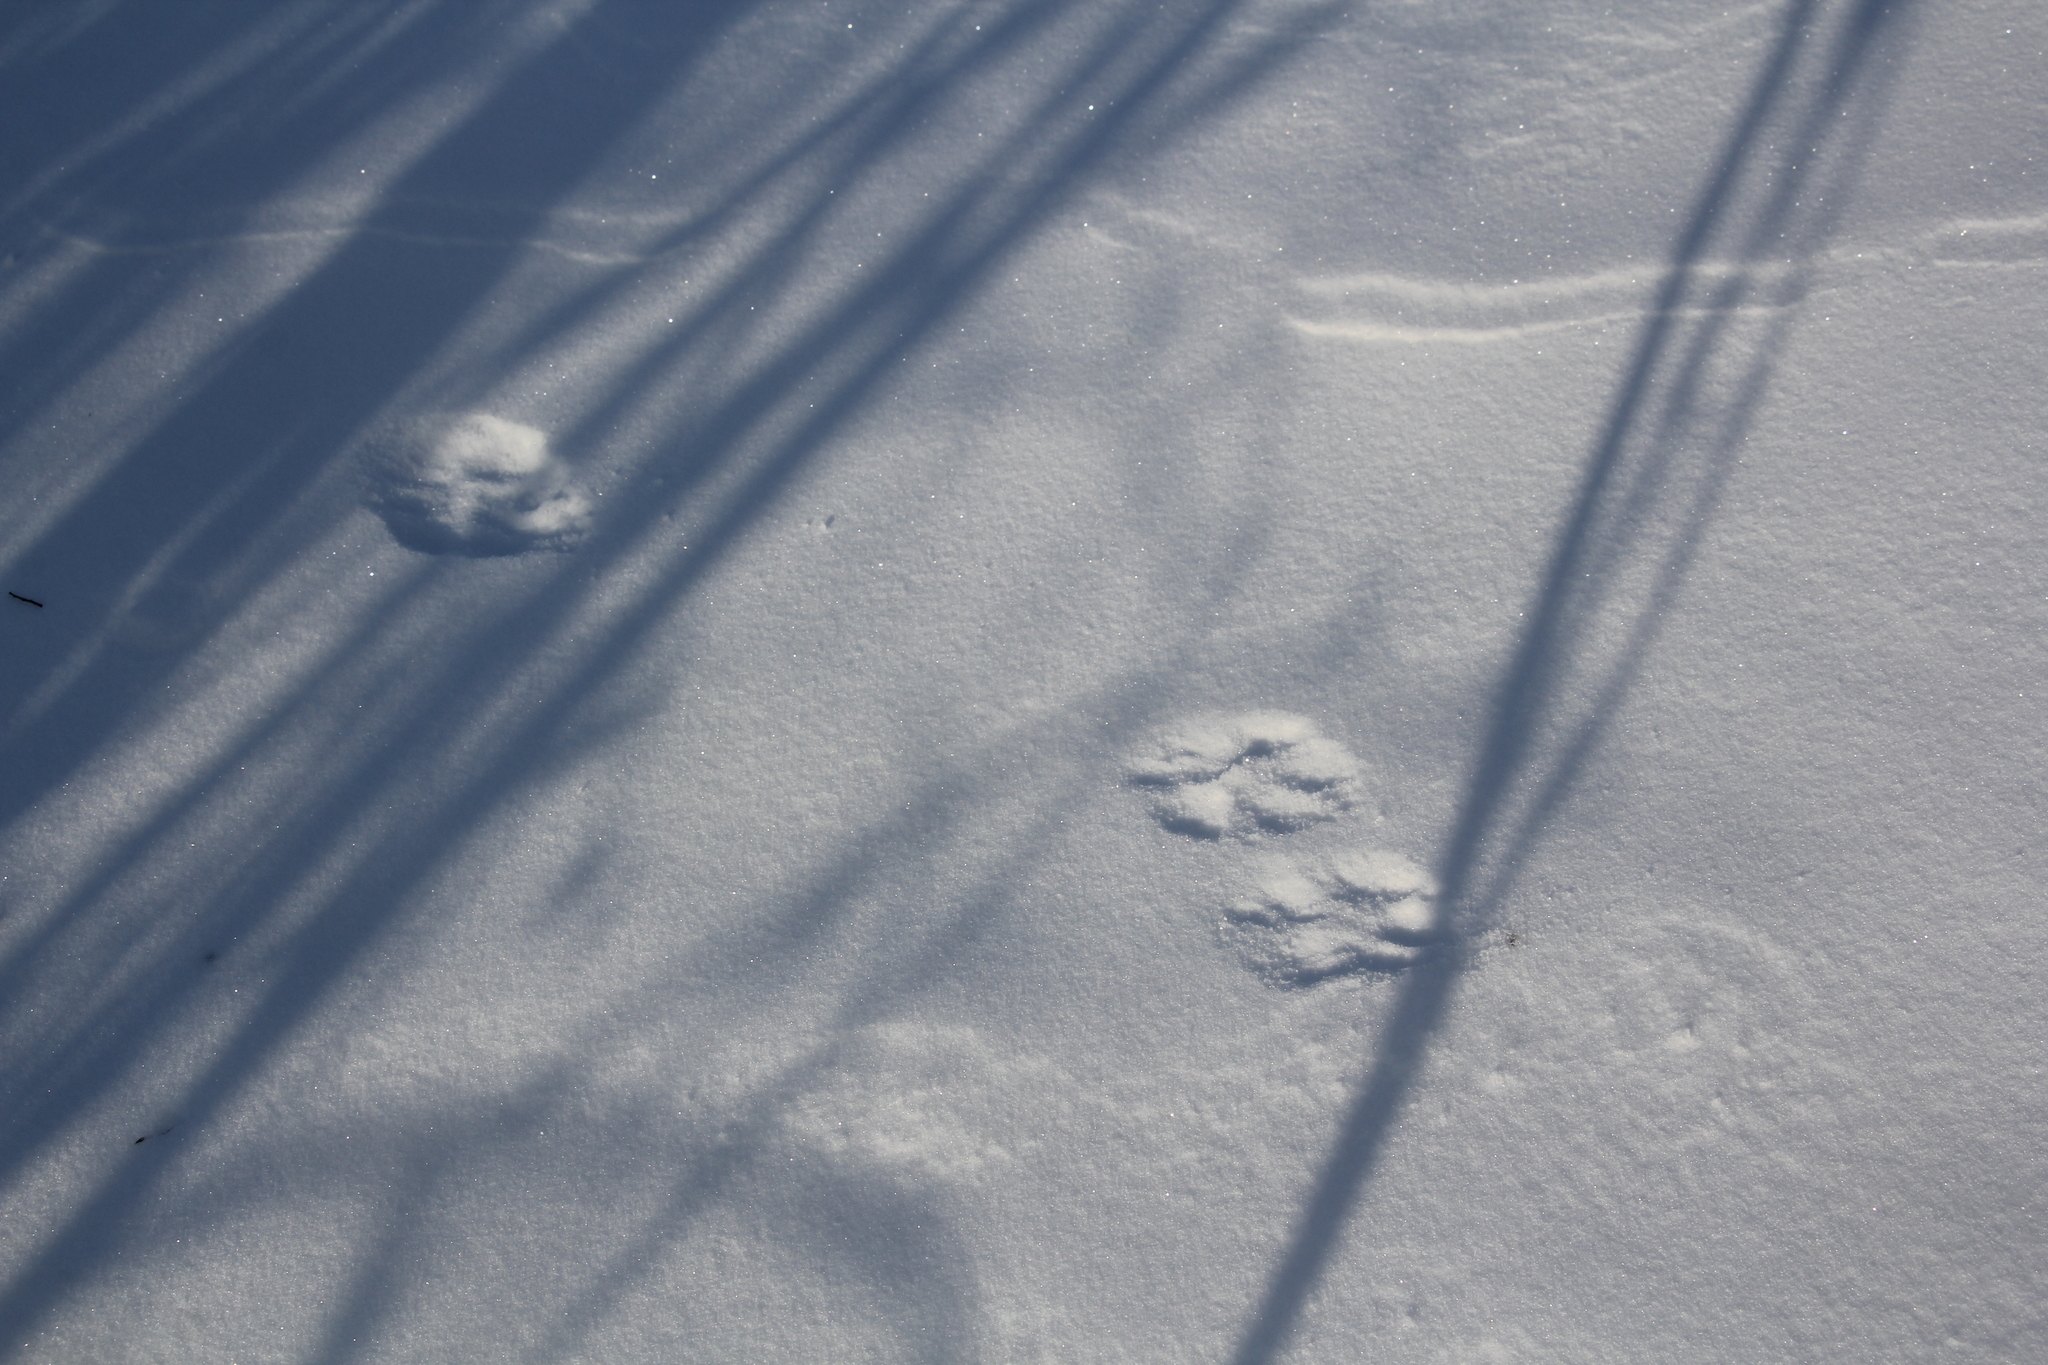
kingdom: Animalia
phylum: Chordata
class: Mammalia
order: Carnivora
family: Mustelidae
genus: Martes
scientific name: Martes zibellina
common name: Sable
